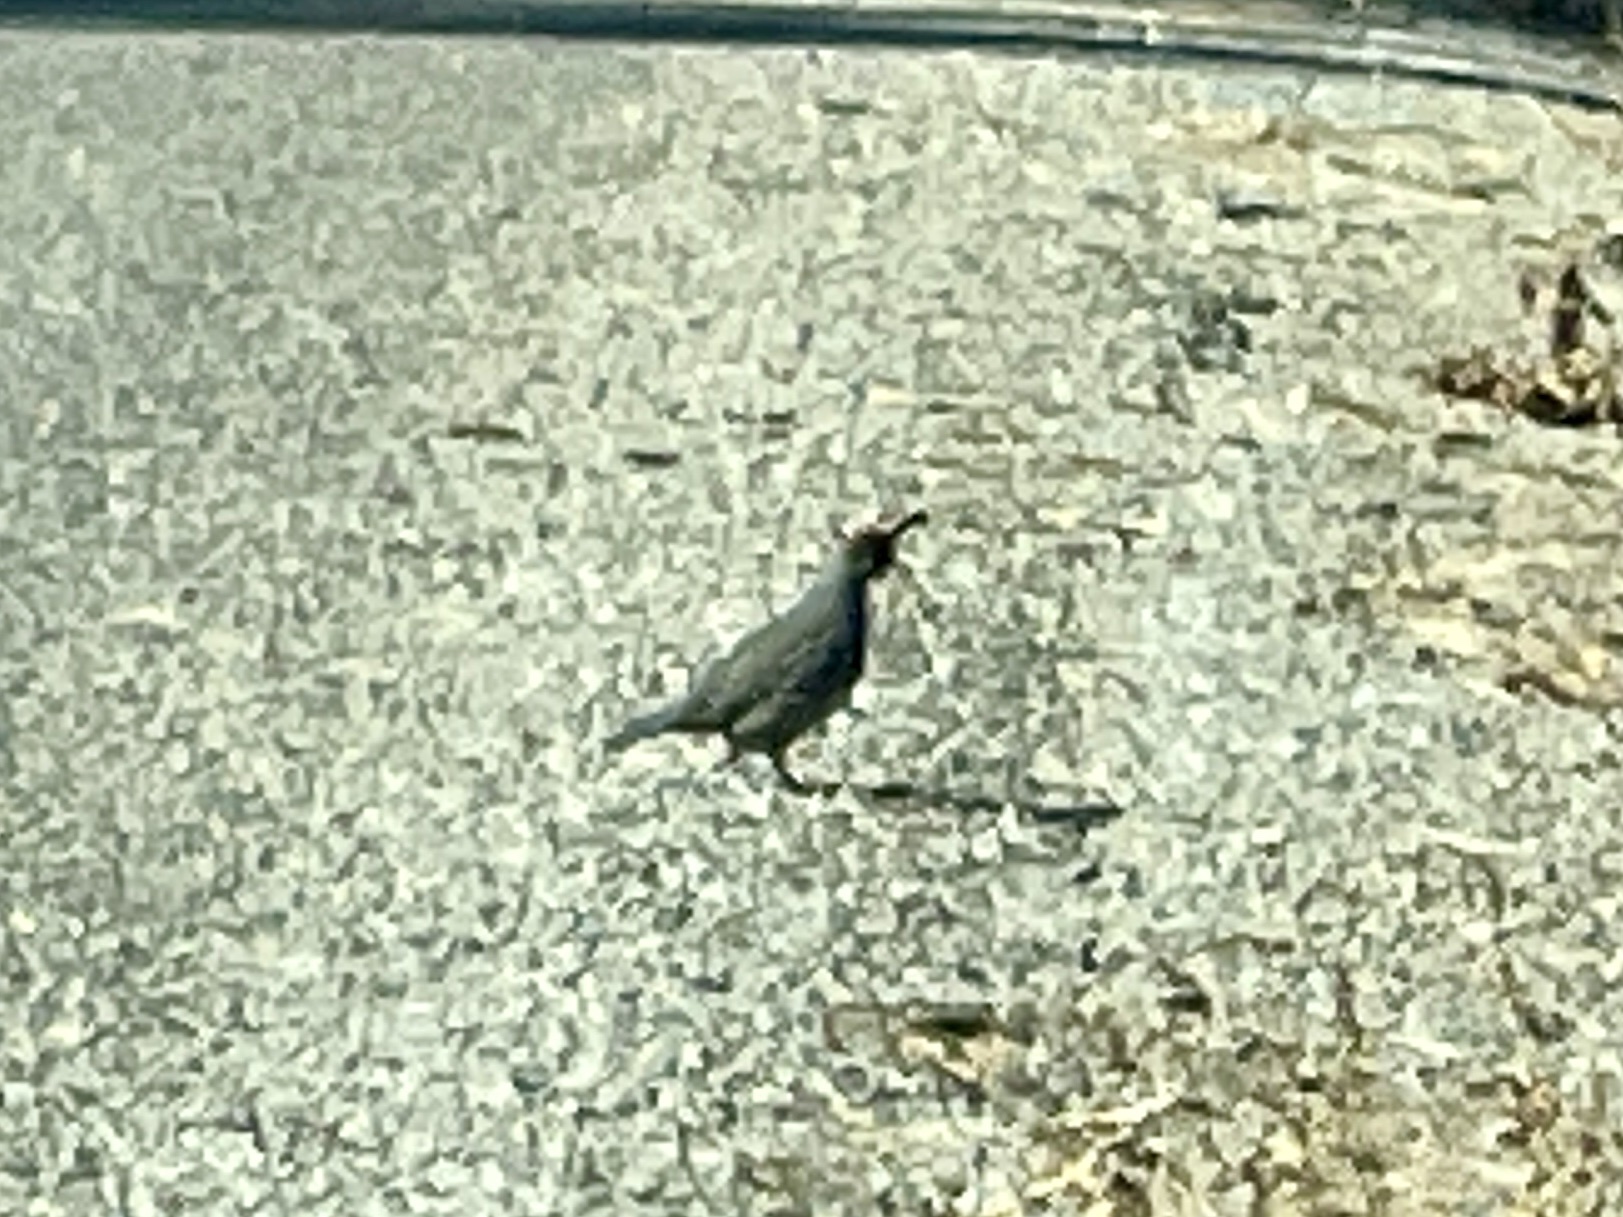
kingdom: Animalia
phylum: Chordata
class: Aves
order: Galliformes
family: Odontophoridae
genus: Callipepla
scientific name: Callipepla gambelii
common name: Gambel's quail
